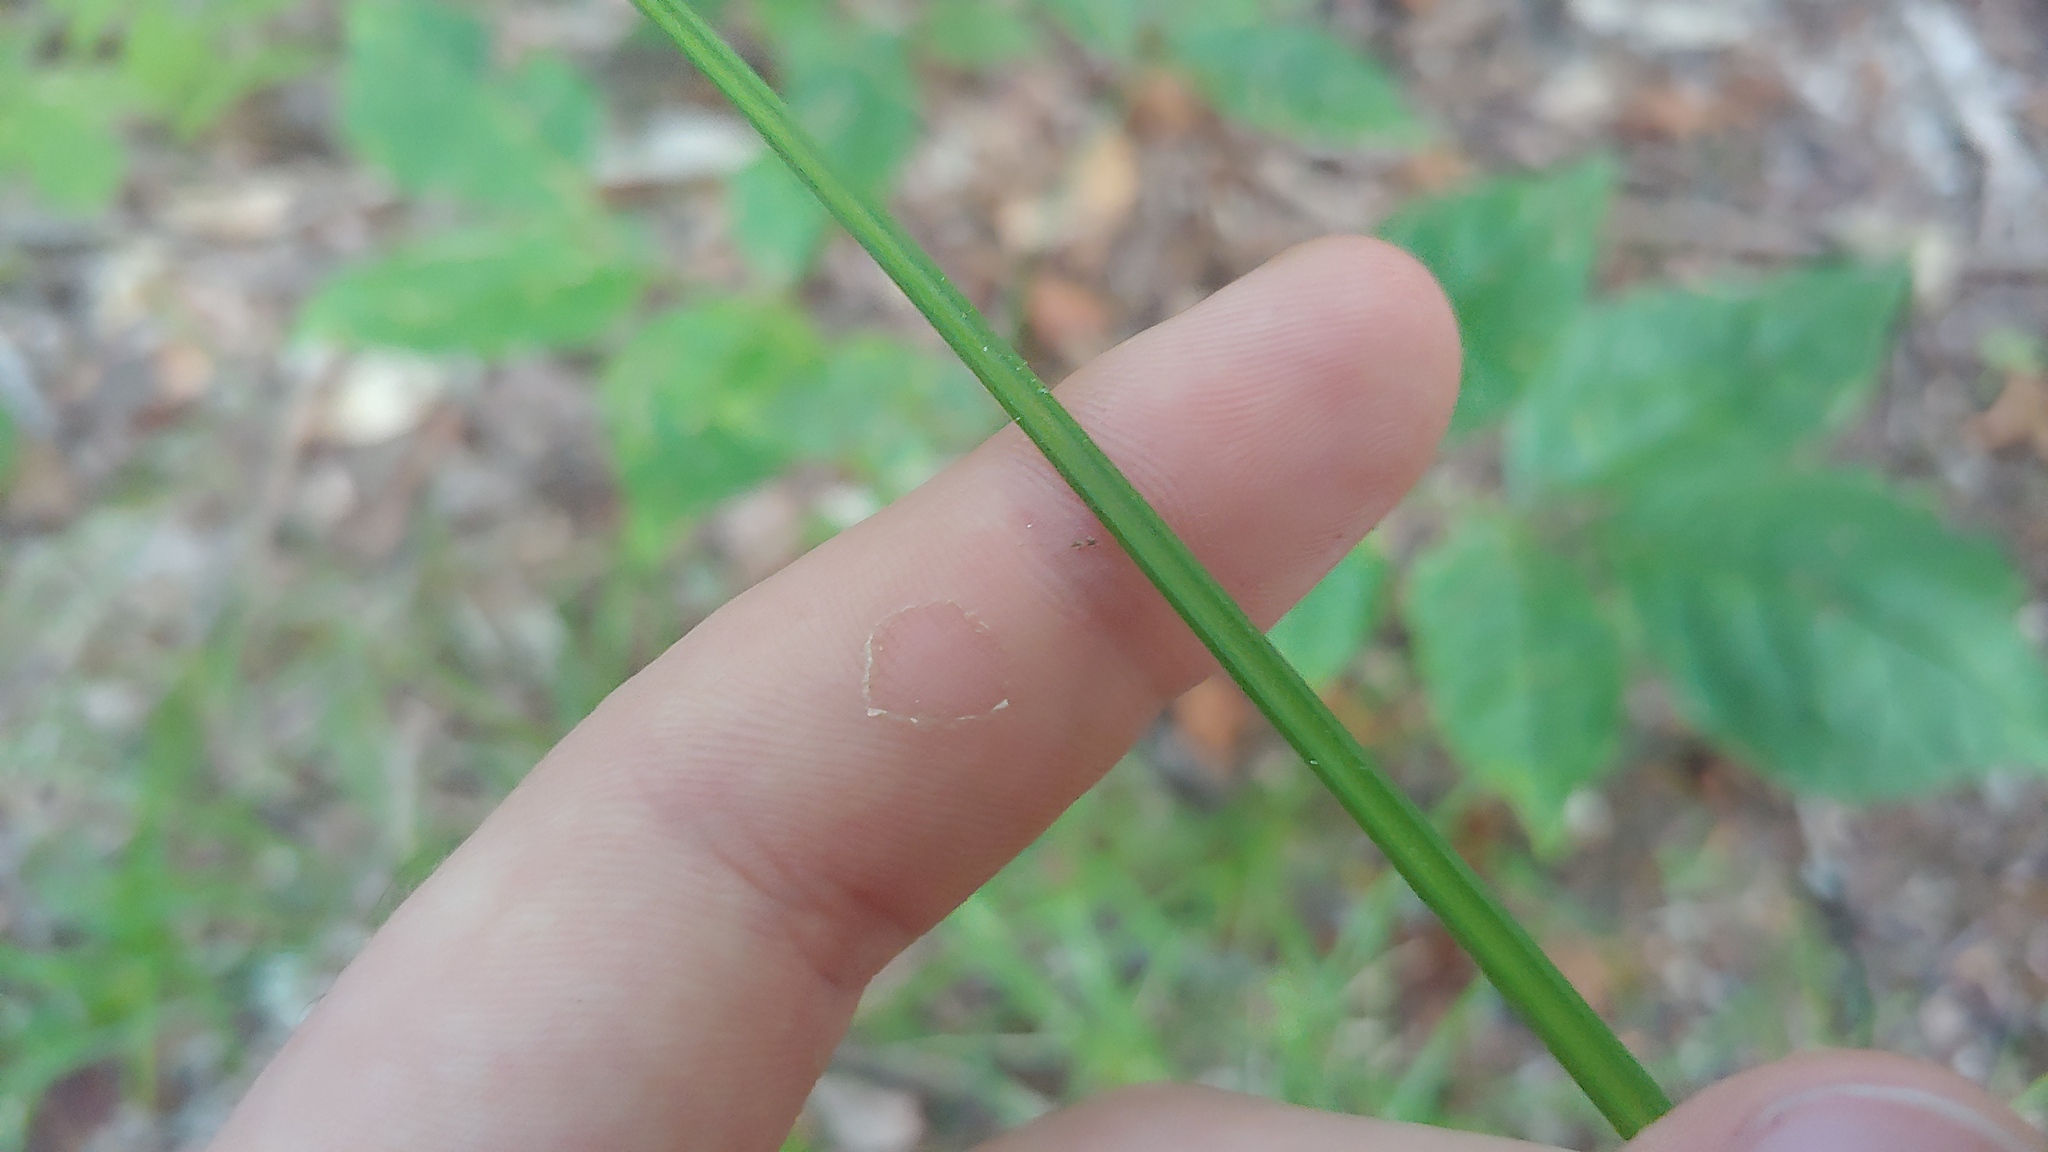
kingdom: Plantae
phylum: Tracheophyta
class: Liliopsida
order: Poales
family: Cyperaceae
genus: Carex
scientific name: Carex swanii
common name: Downy green sedge
